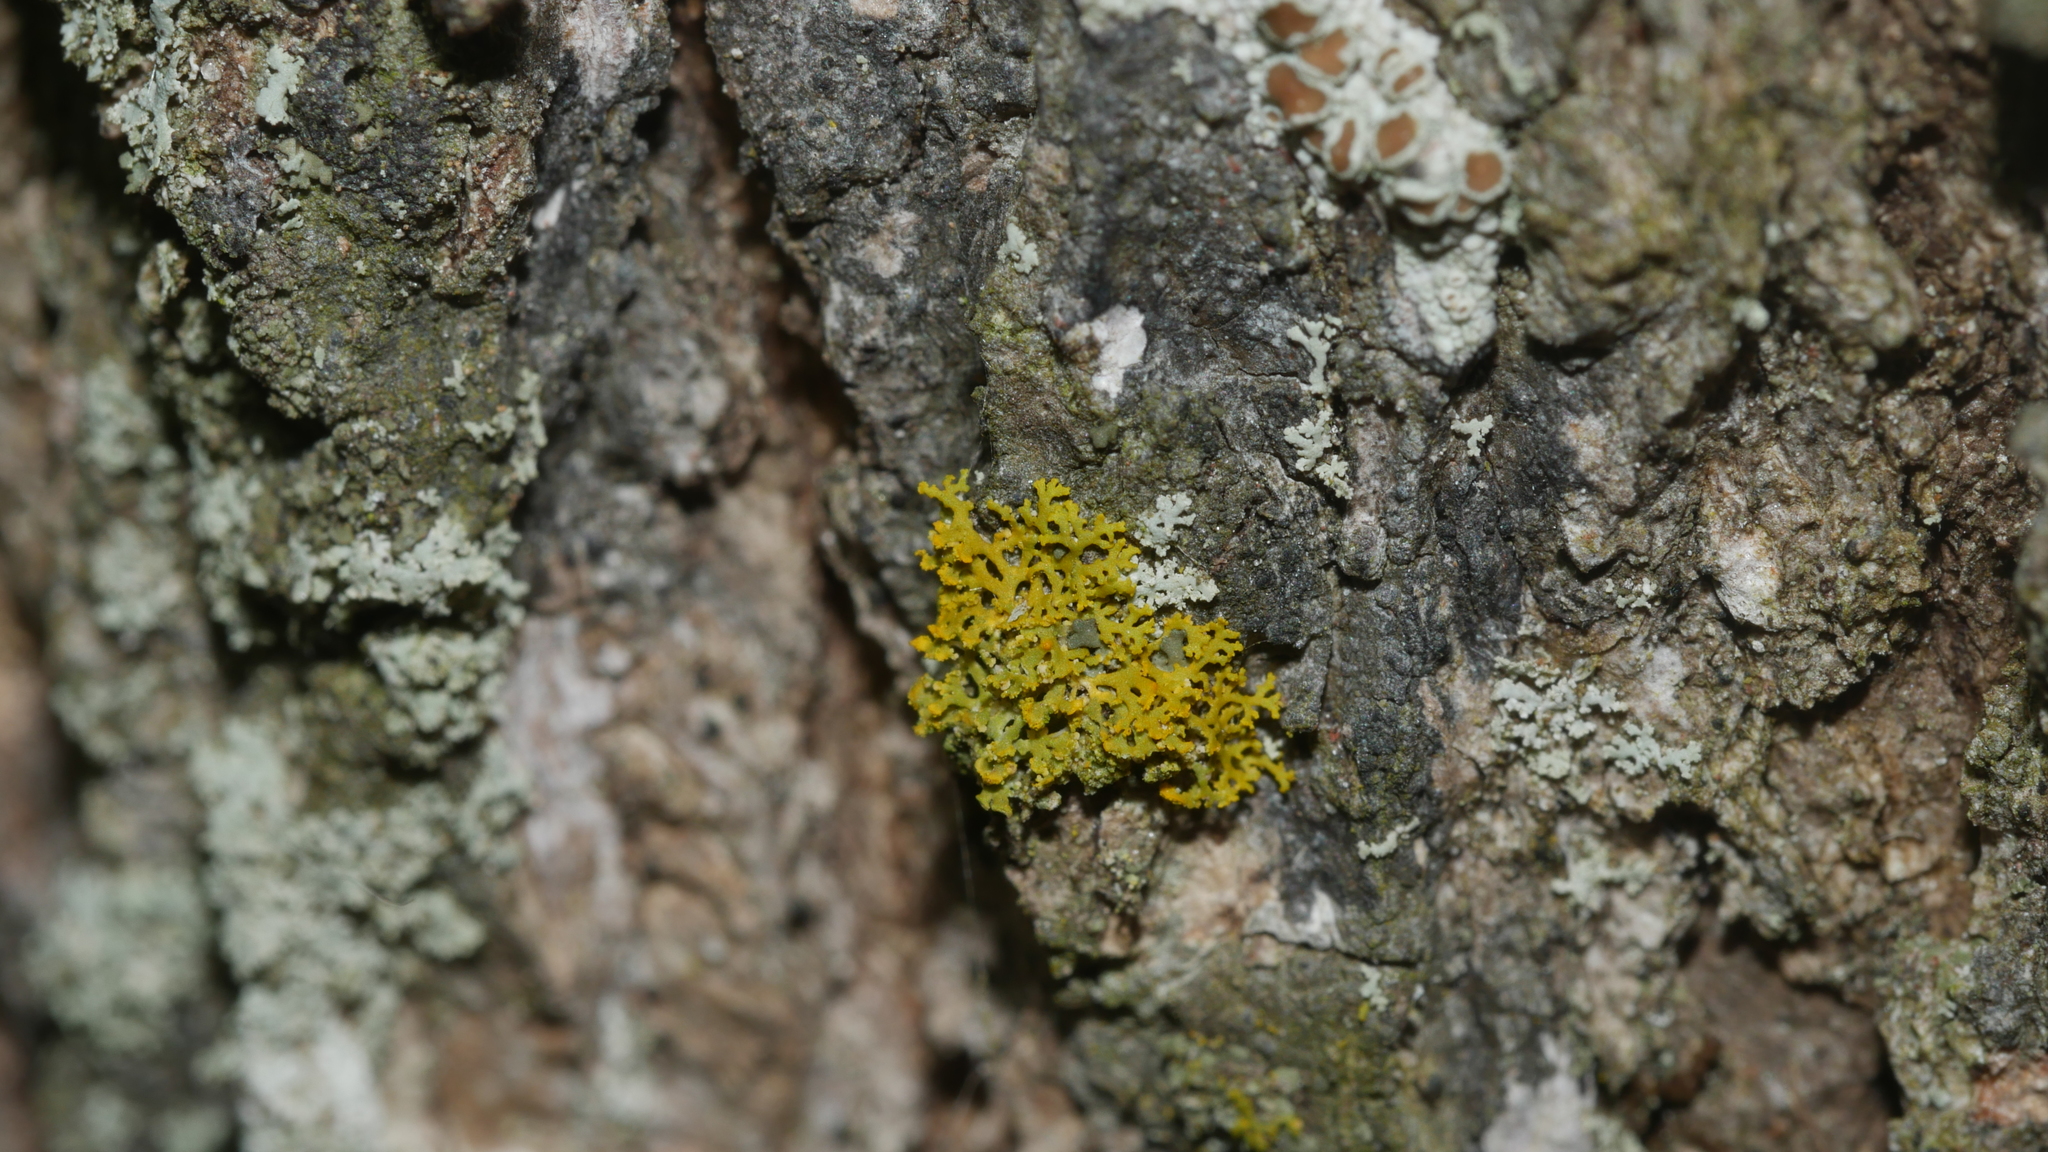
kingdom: Fungi
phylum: Ascomycota
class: Candelariomycetes
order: Candelariales
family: Candelariaceae
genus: Candelaria
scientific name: Candelaria concolor
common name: Candleflame lichen
